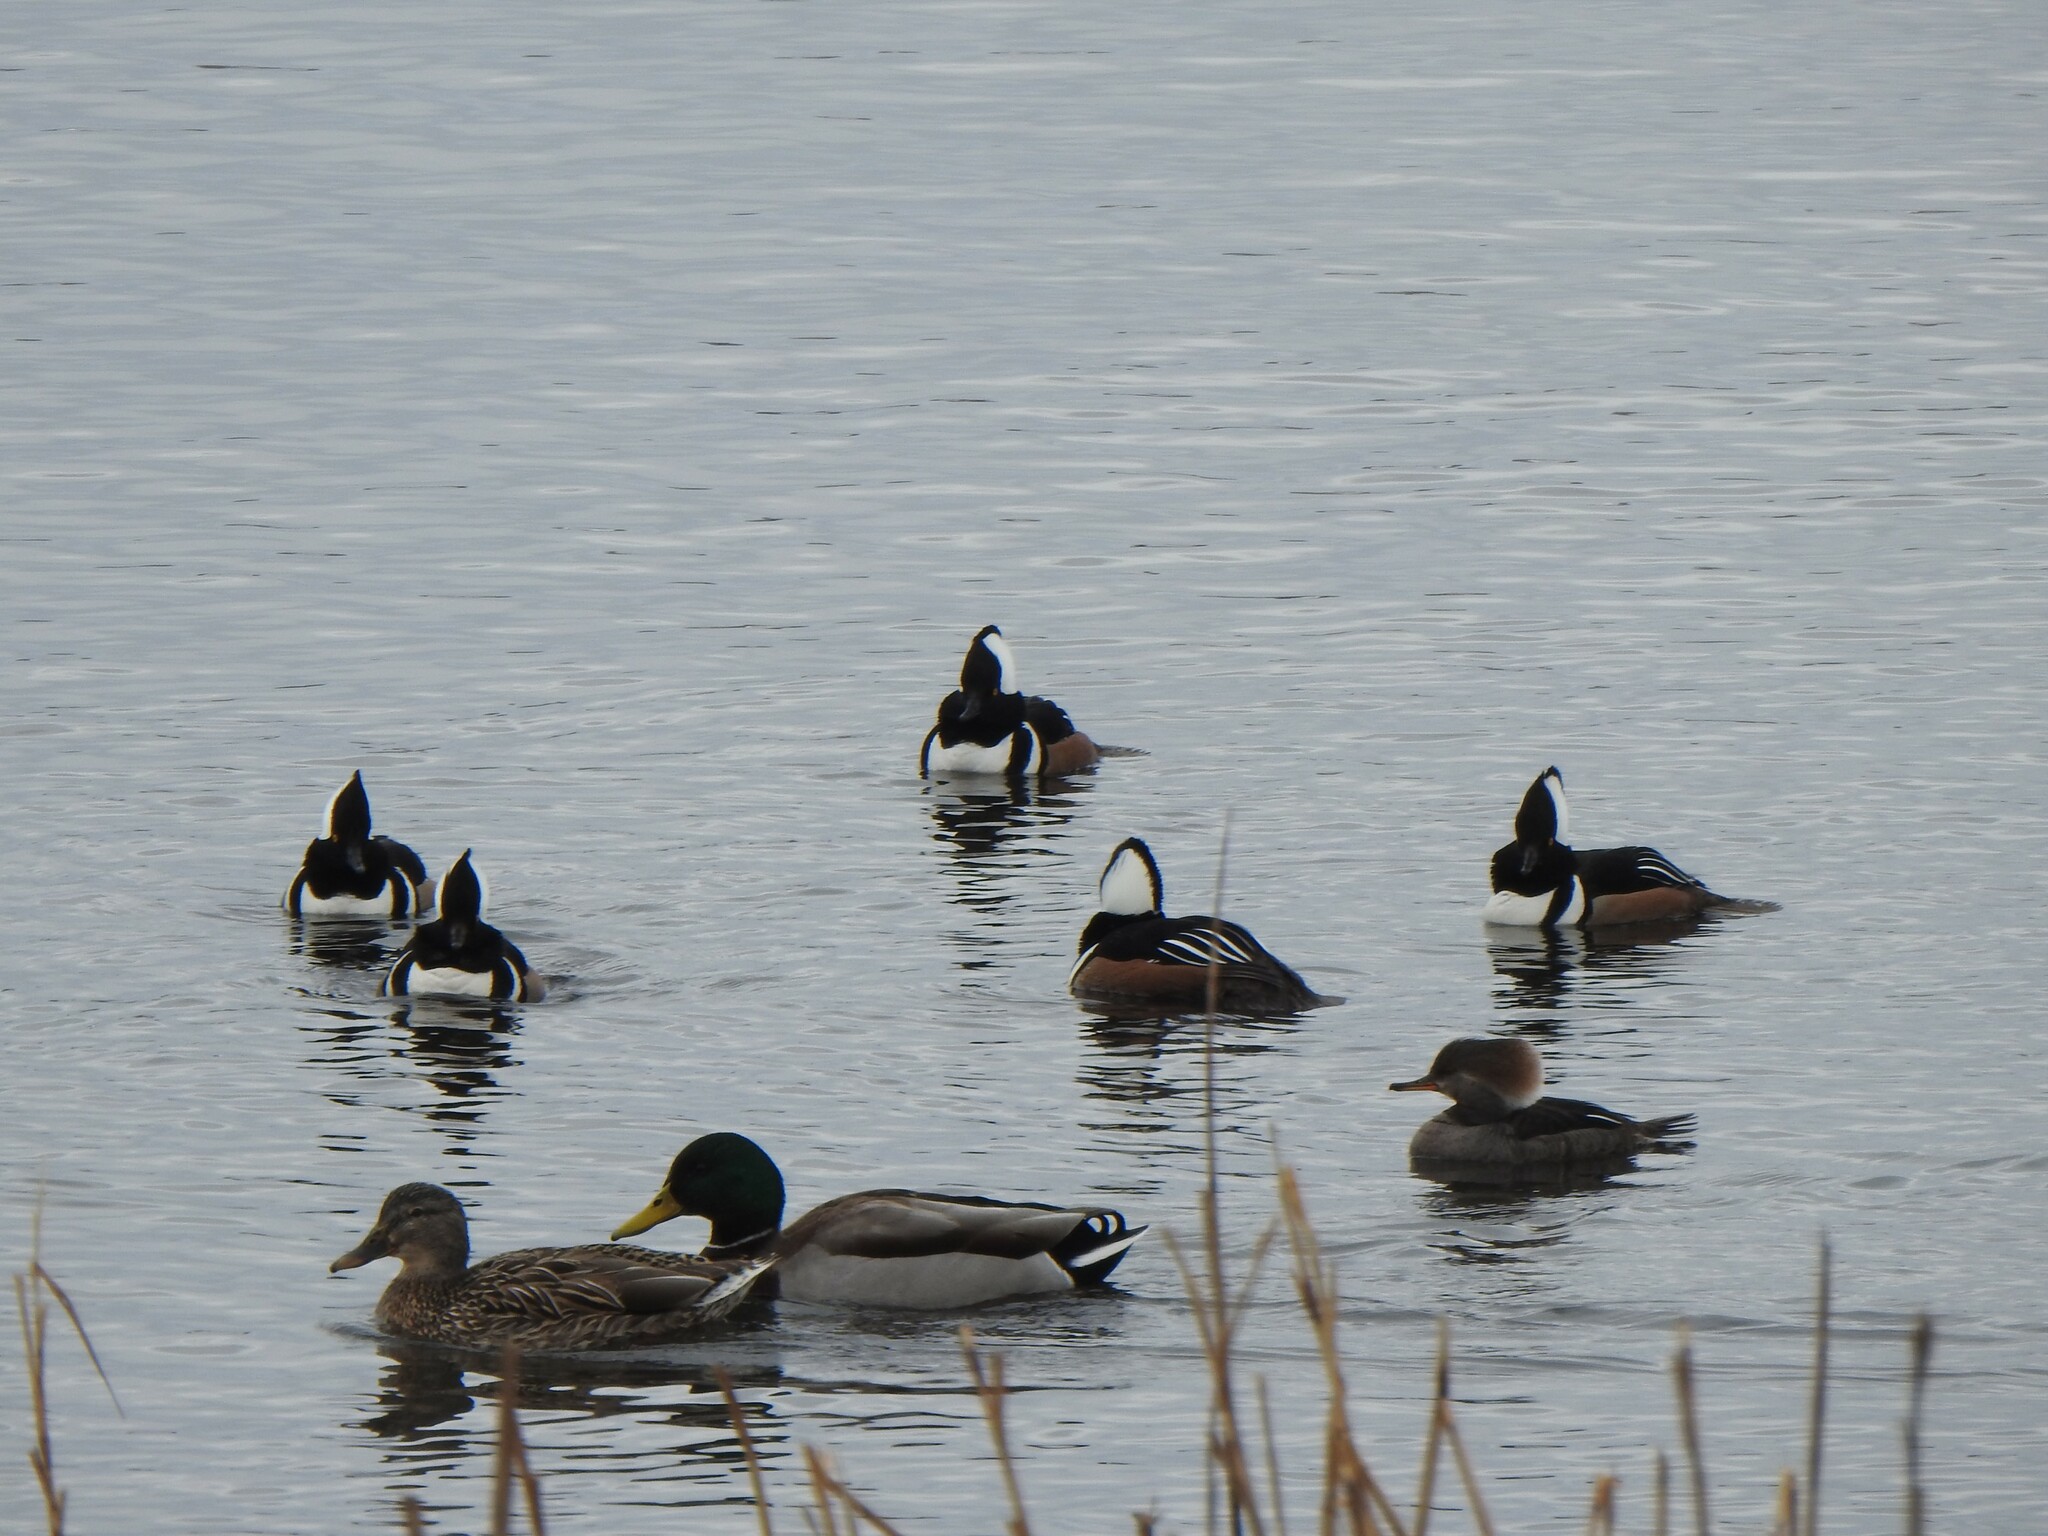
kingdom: Animalia
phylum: Chordata
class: Aves
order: Anseriformes
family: Anatidae
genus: Lophodytes
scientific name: Lophodytes cucullatus
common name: Hooded merganser
